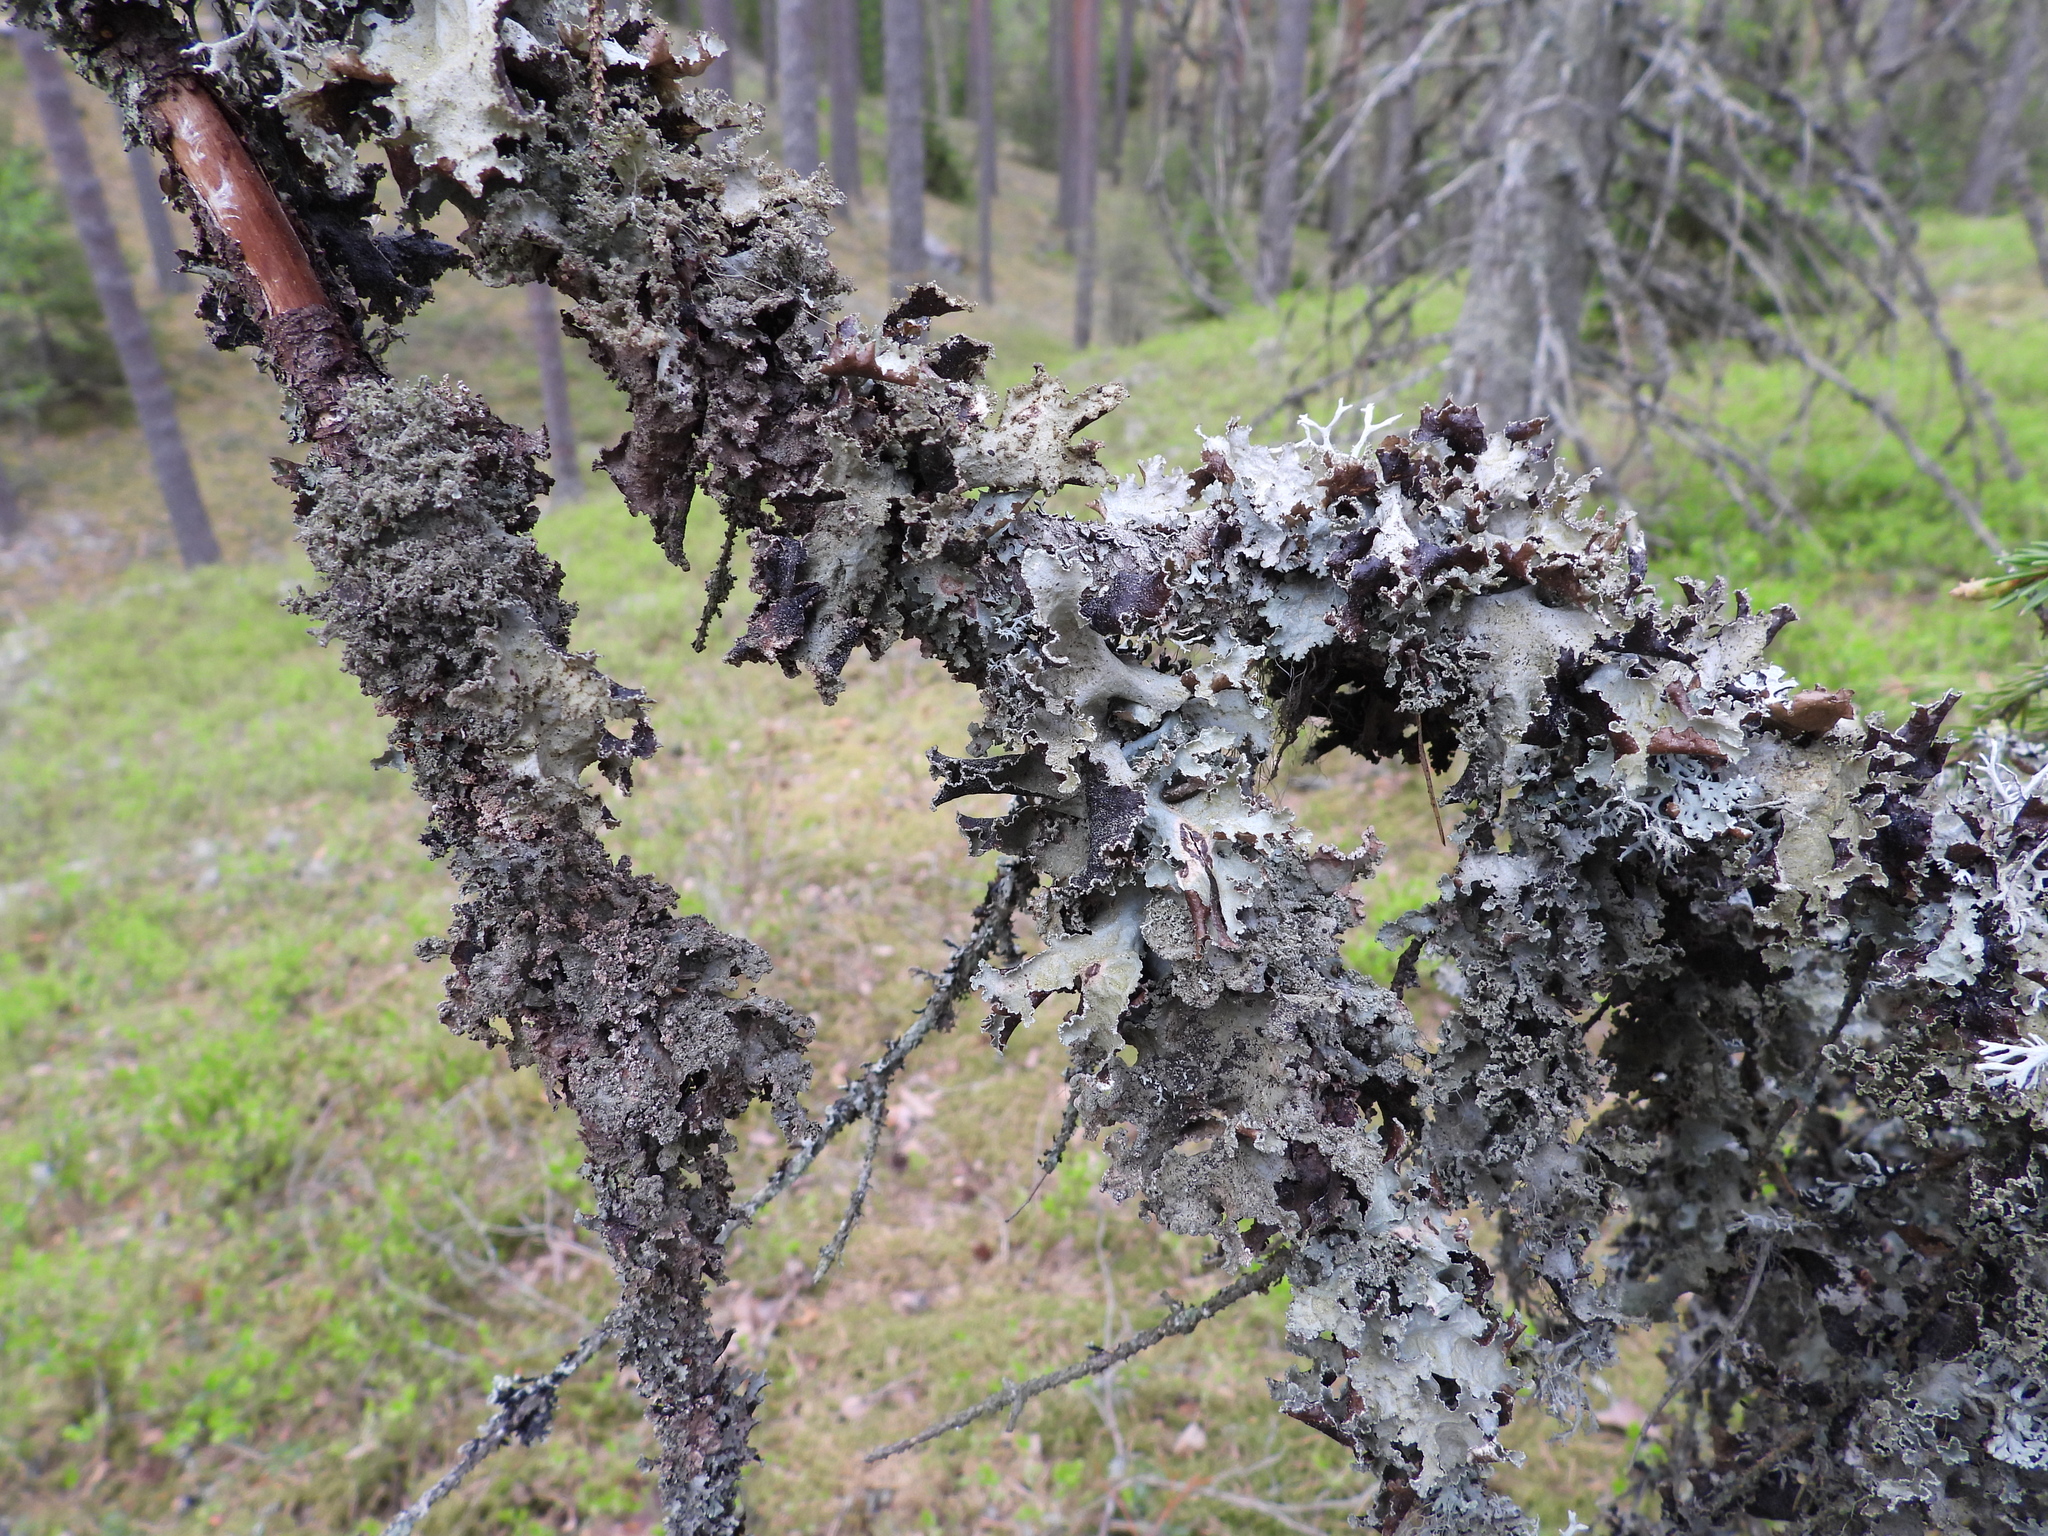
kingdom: Fungi
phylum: Ascomycota
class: Lecanoromycetes
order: Lecanorales
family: Parmeliaceae
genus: Platismatia
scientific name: Platismatia glauca
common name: Varied rag lichen
